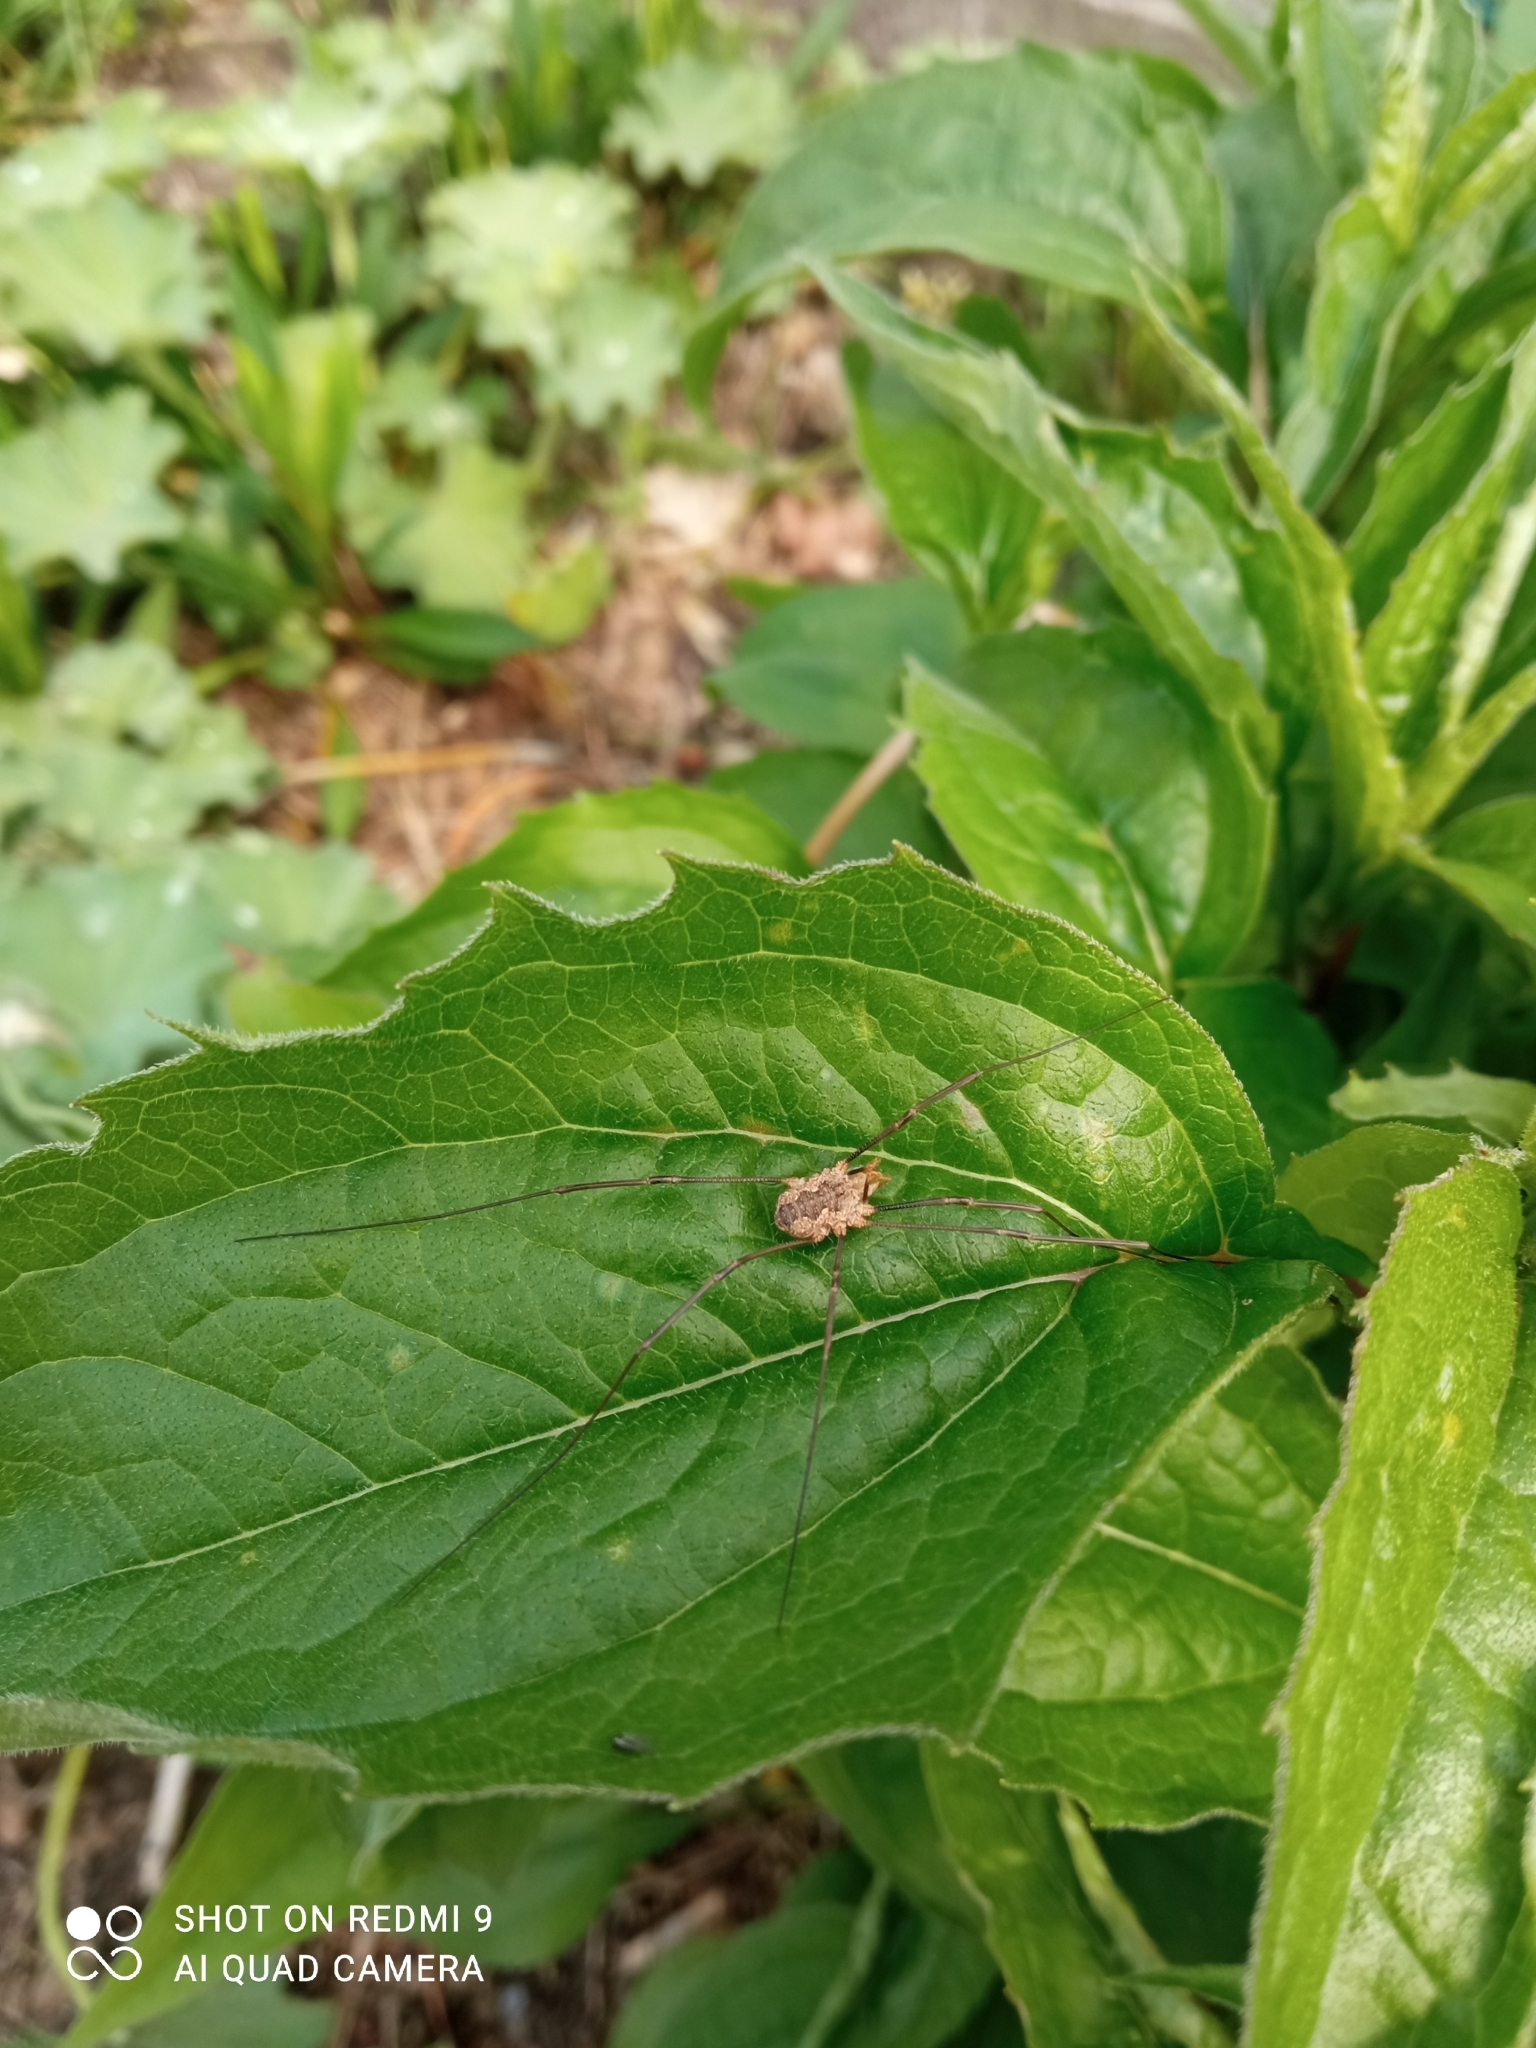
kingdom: Animalia
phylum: Arthropoda
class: Arachnida
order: Opiliones
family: Phalangiidae
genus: Phalangium
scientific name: Phalangium opilio
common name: Daddy longleg
